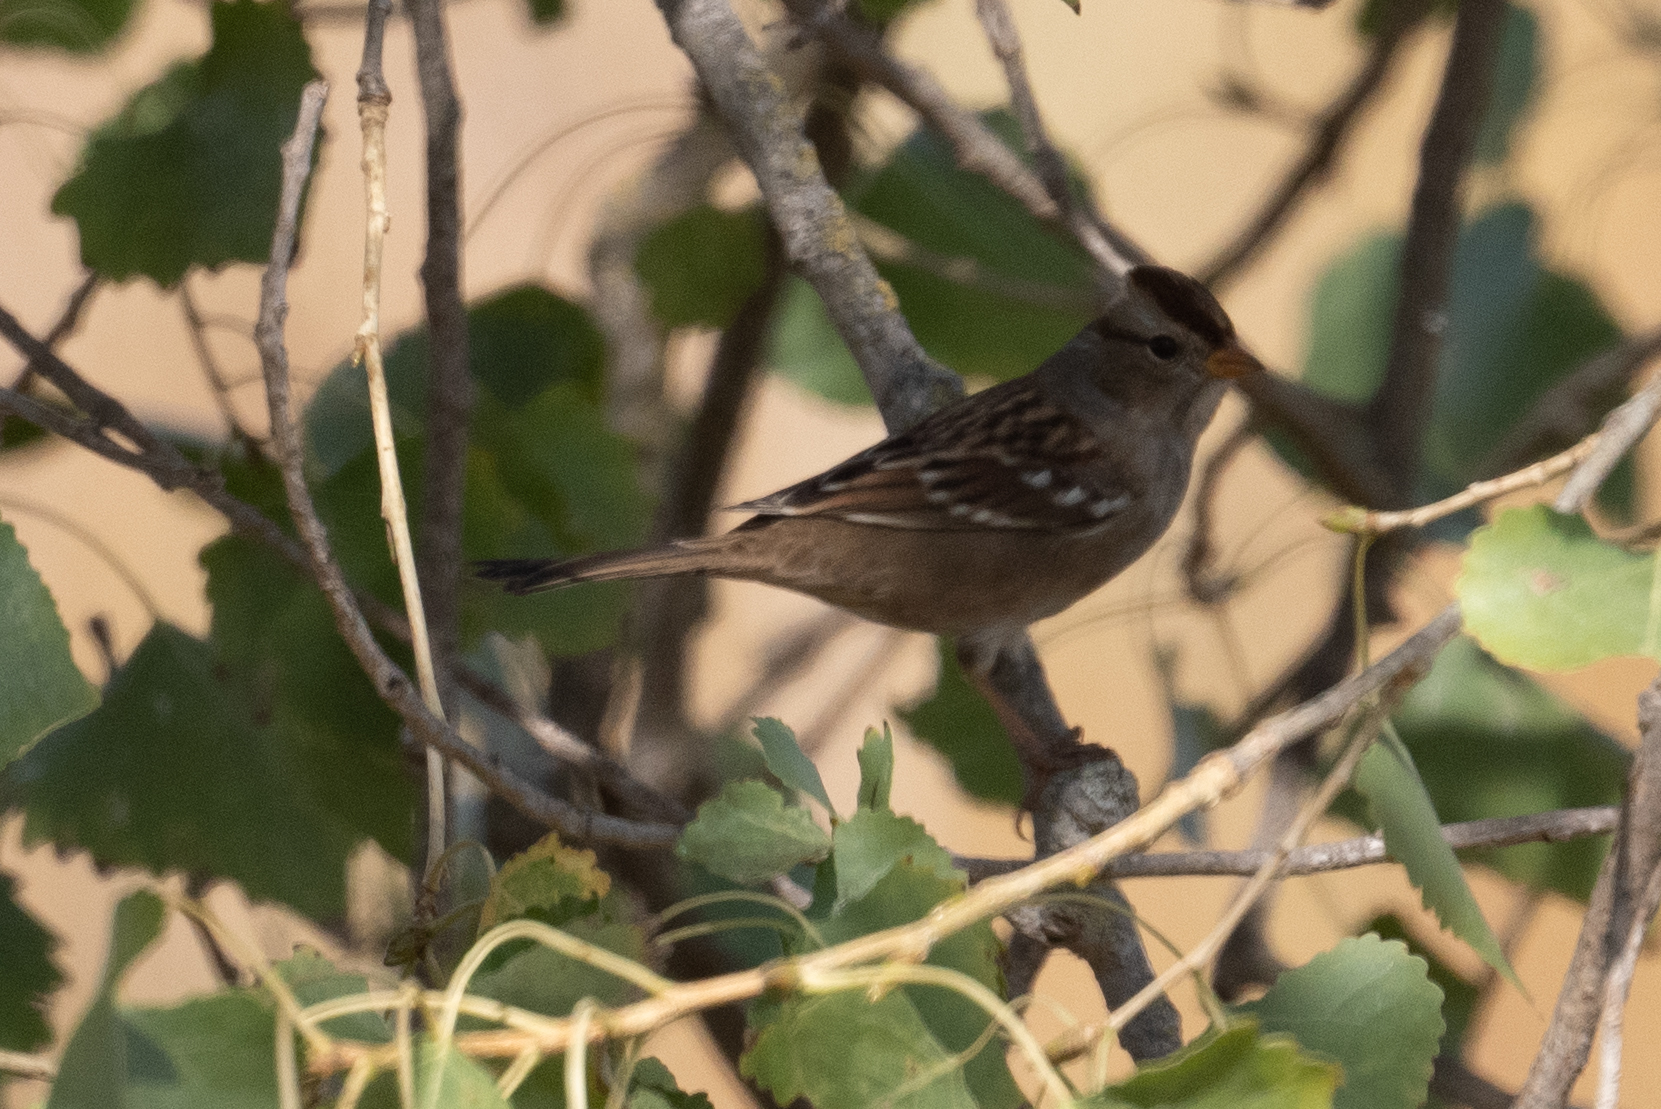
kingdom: Animalia
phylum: Chordata
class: Aves
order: Passeriformes
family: Passerellidae
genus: Zonotrichia
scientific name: Zonotrichia leucophrys
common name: White-crowned sparrow
